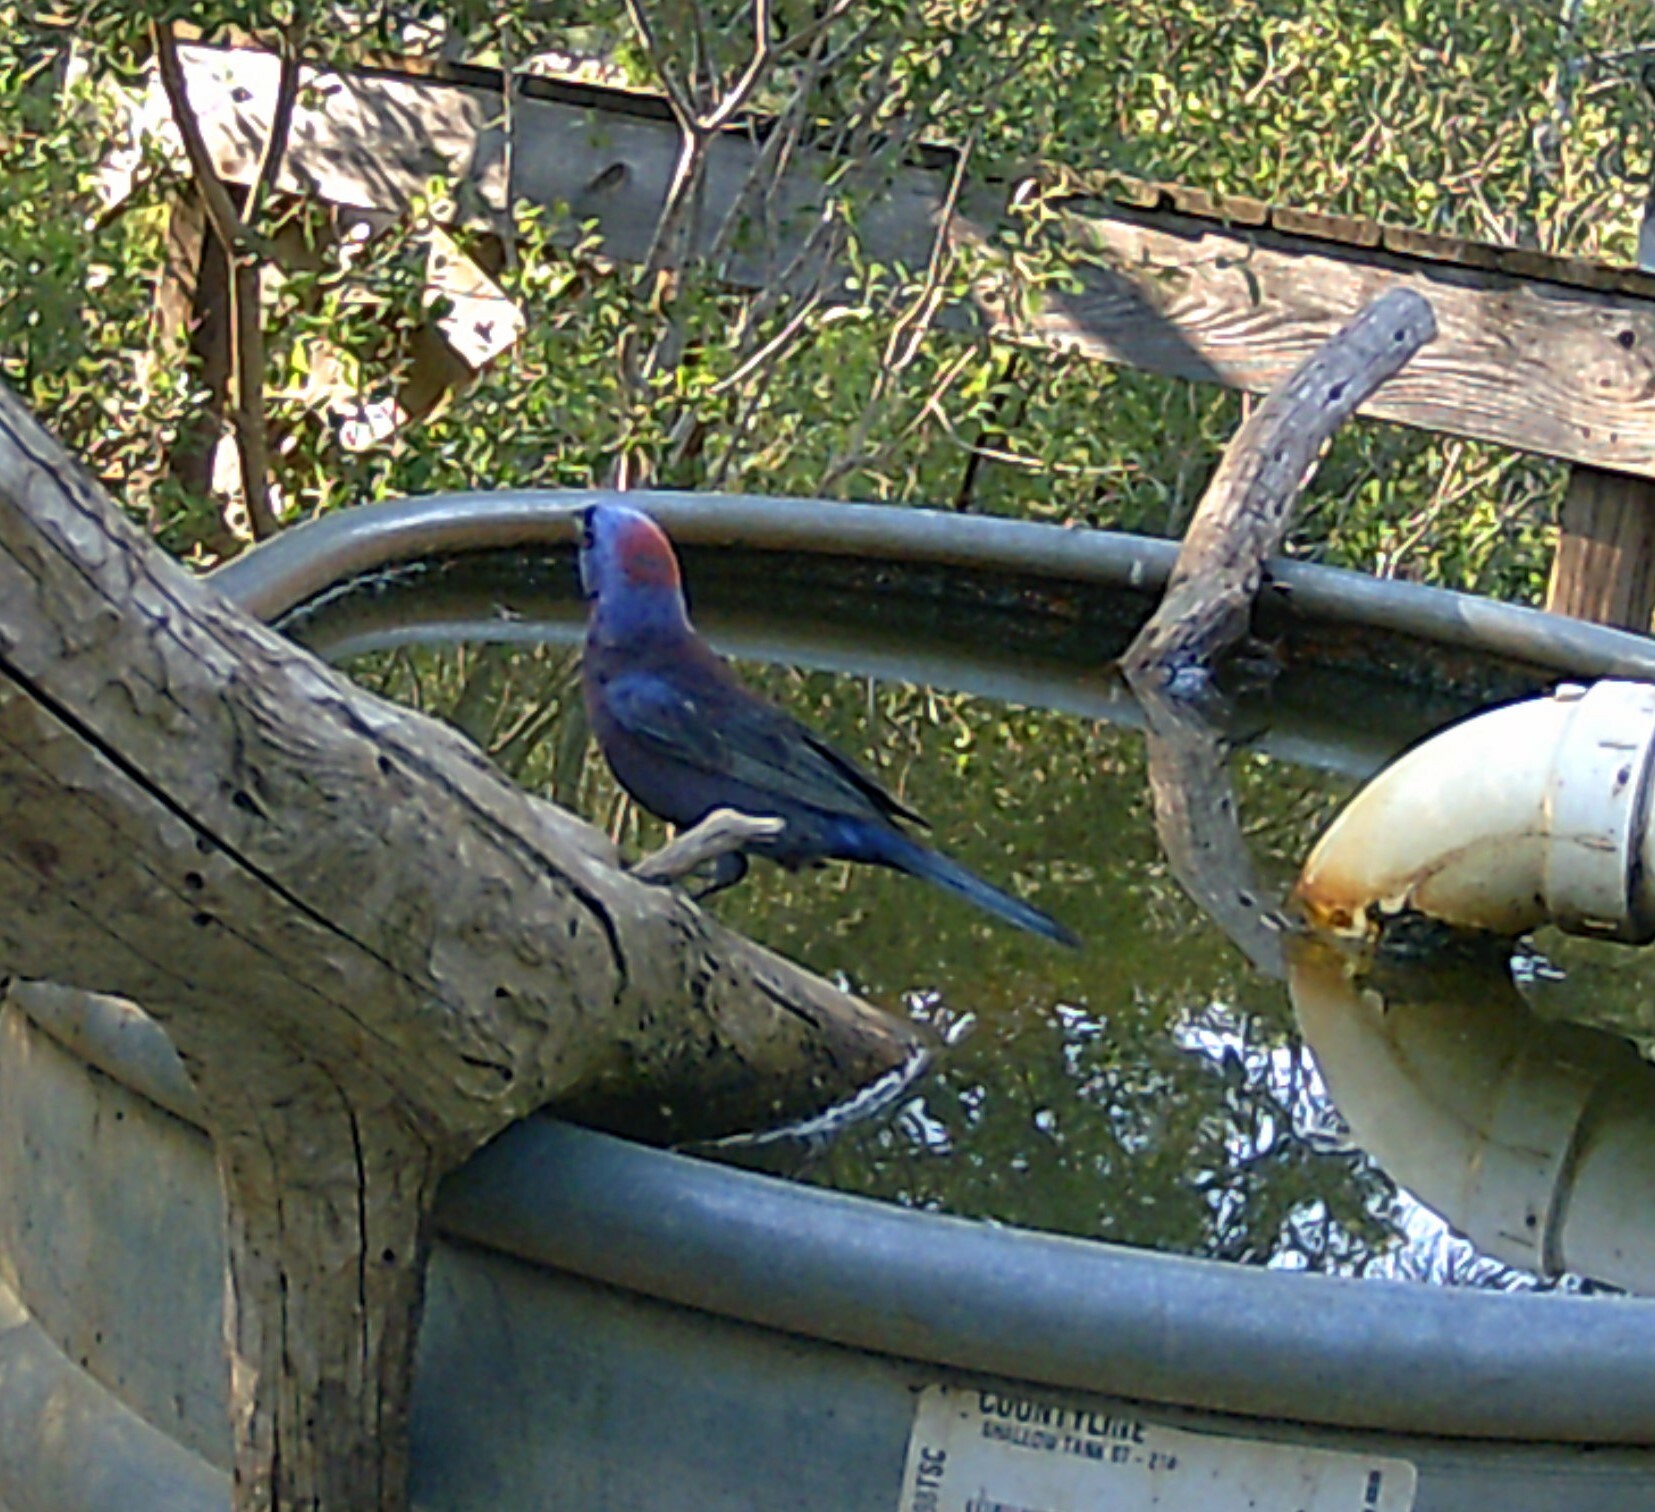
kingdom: Animalia
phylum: Chordata
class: Aves
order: Passeriformes
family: Cardinalidae
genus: Passerina
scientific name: Passerina versicolor
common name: Varied bunting
